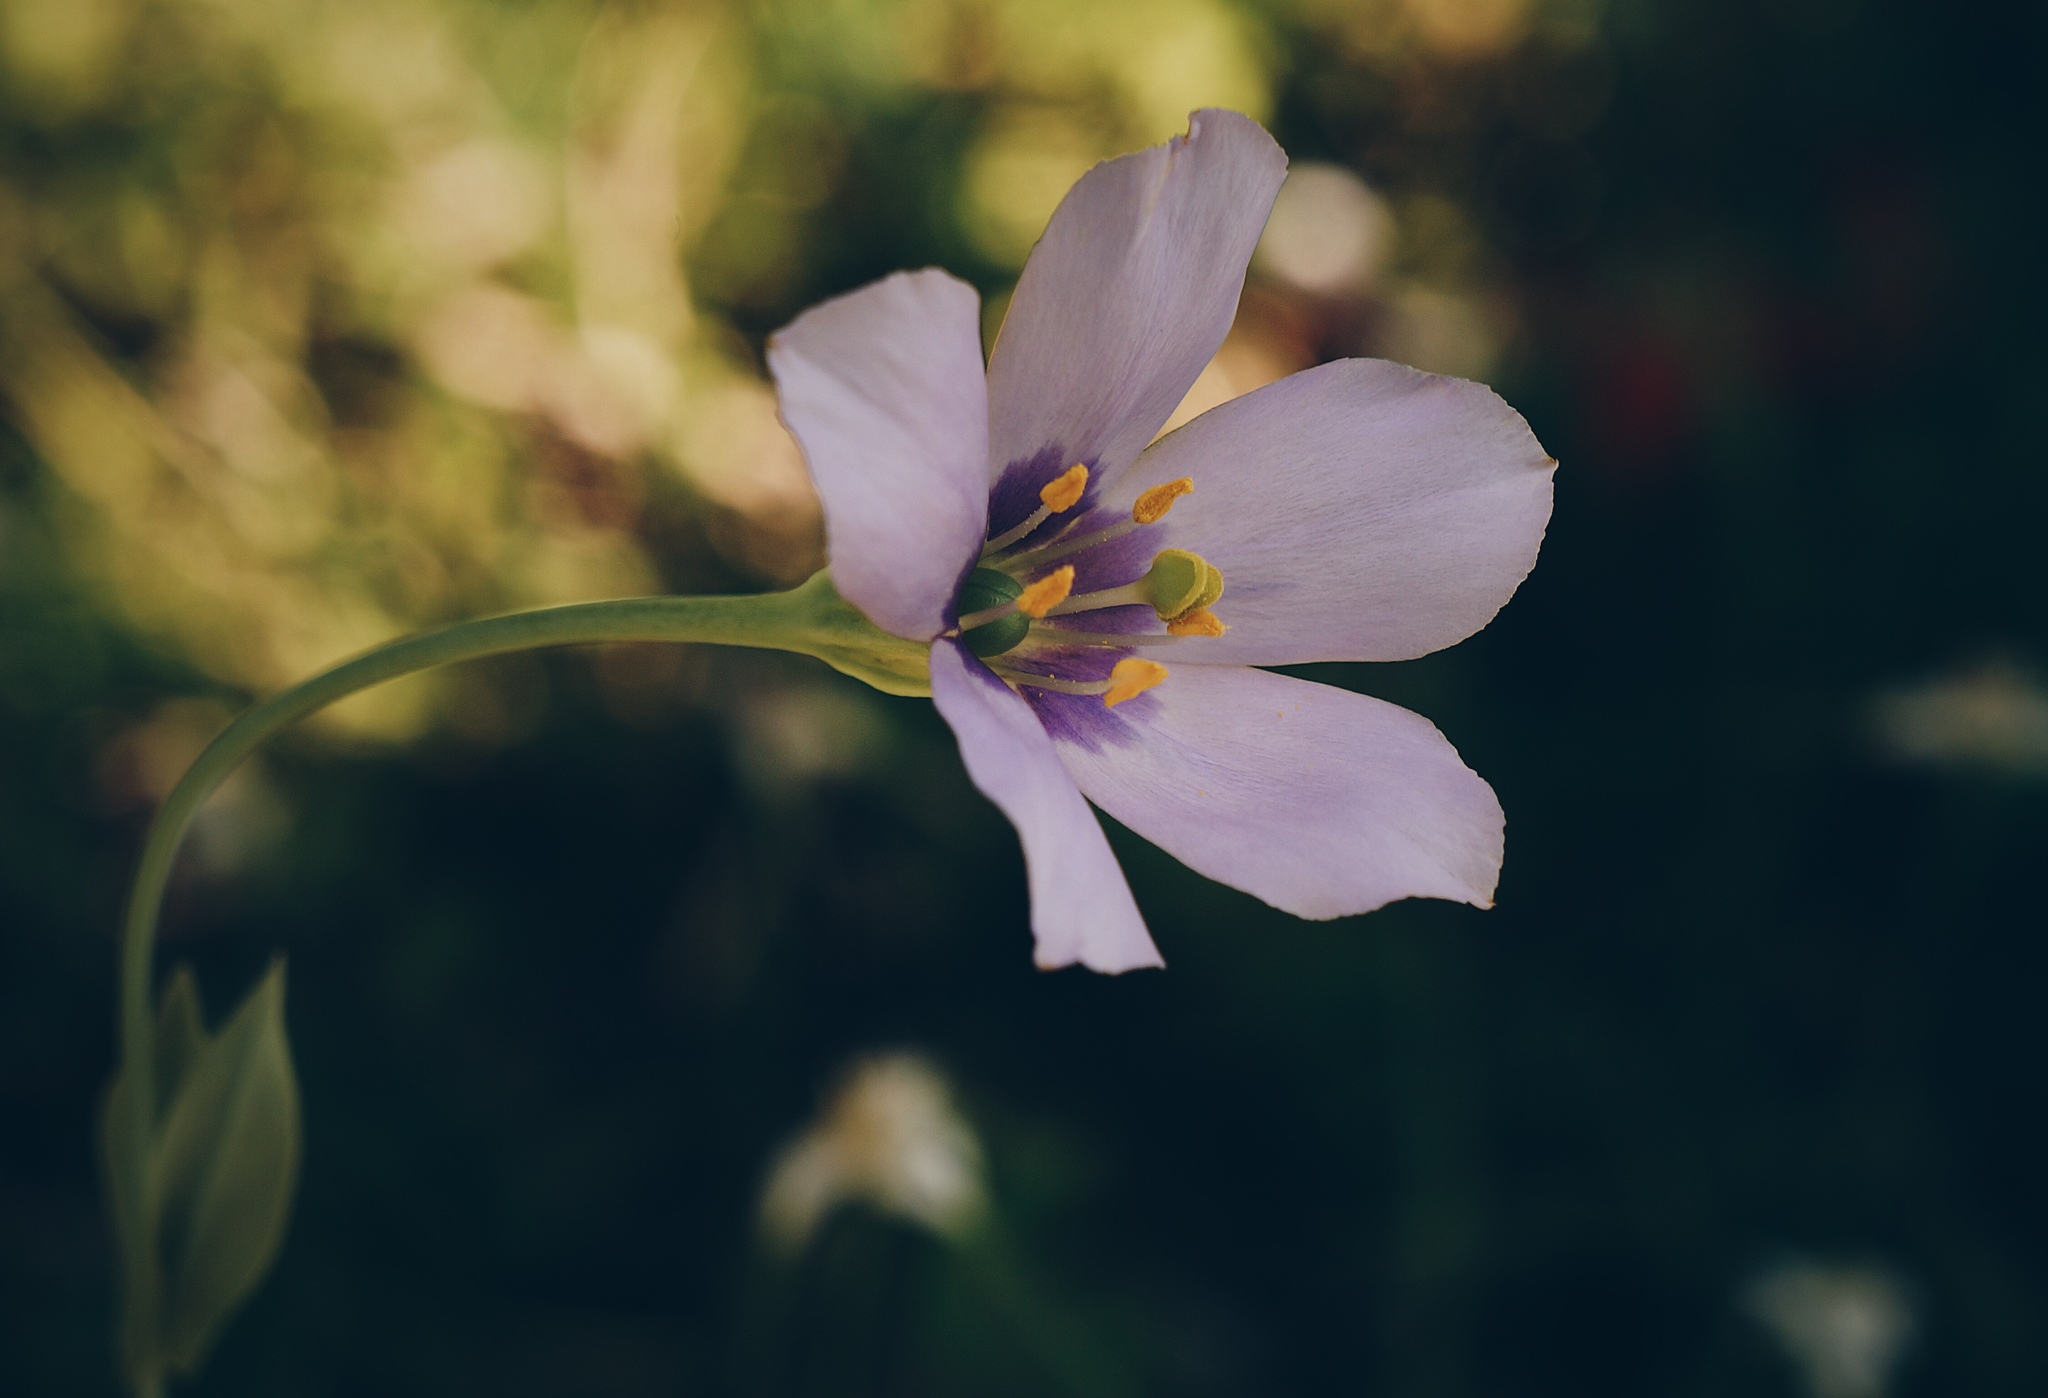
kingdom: Plantae
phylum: Tracheophyta
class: Magnoliopsida
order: Gentianales
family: Gentianaceae
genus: Eustoma
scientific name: Eustoma exaltatum
